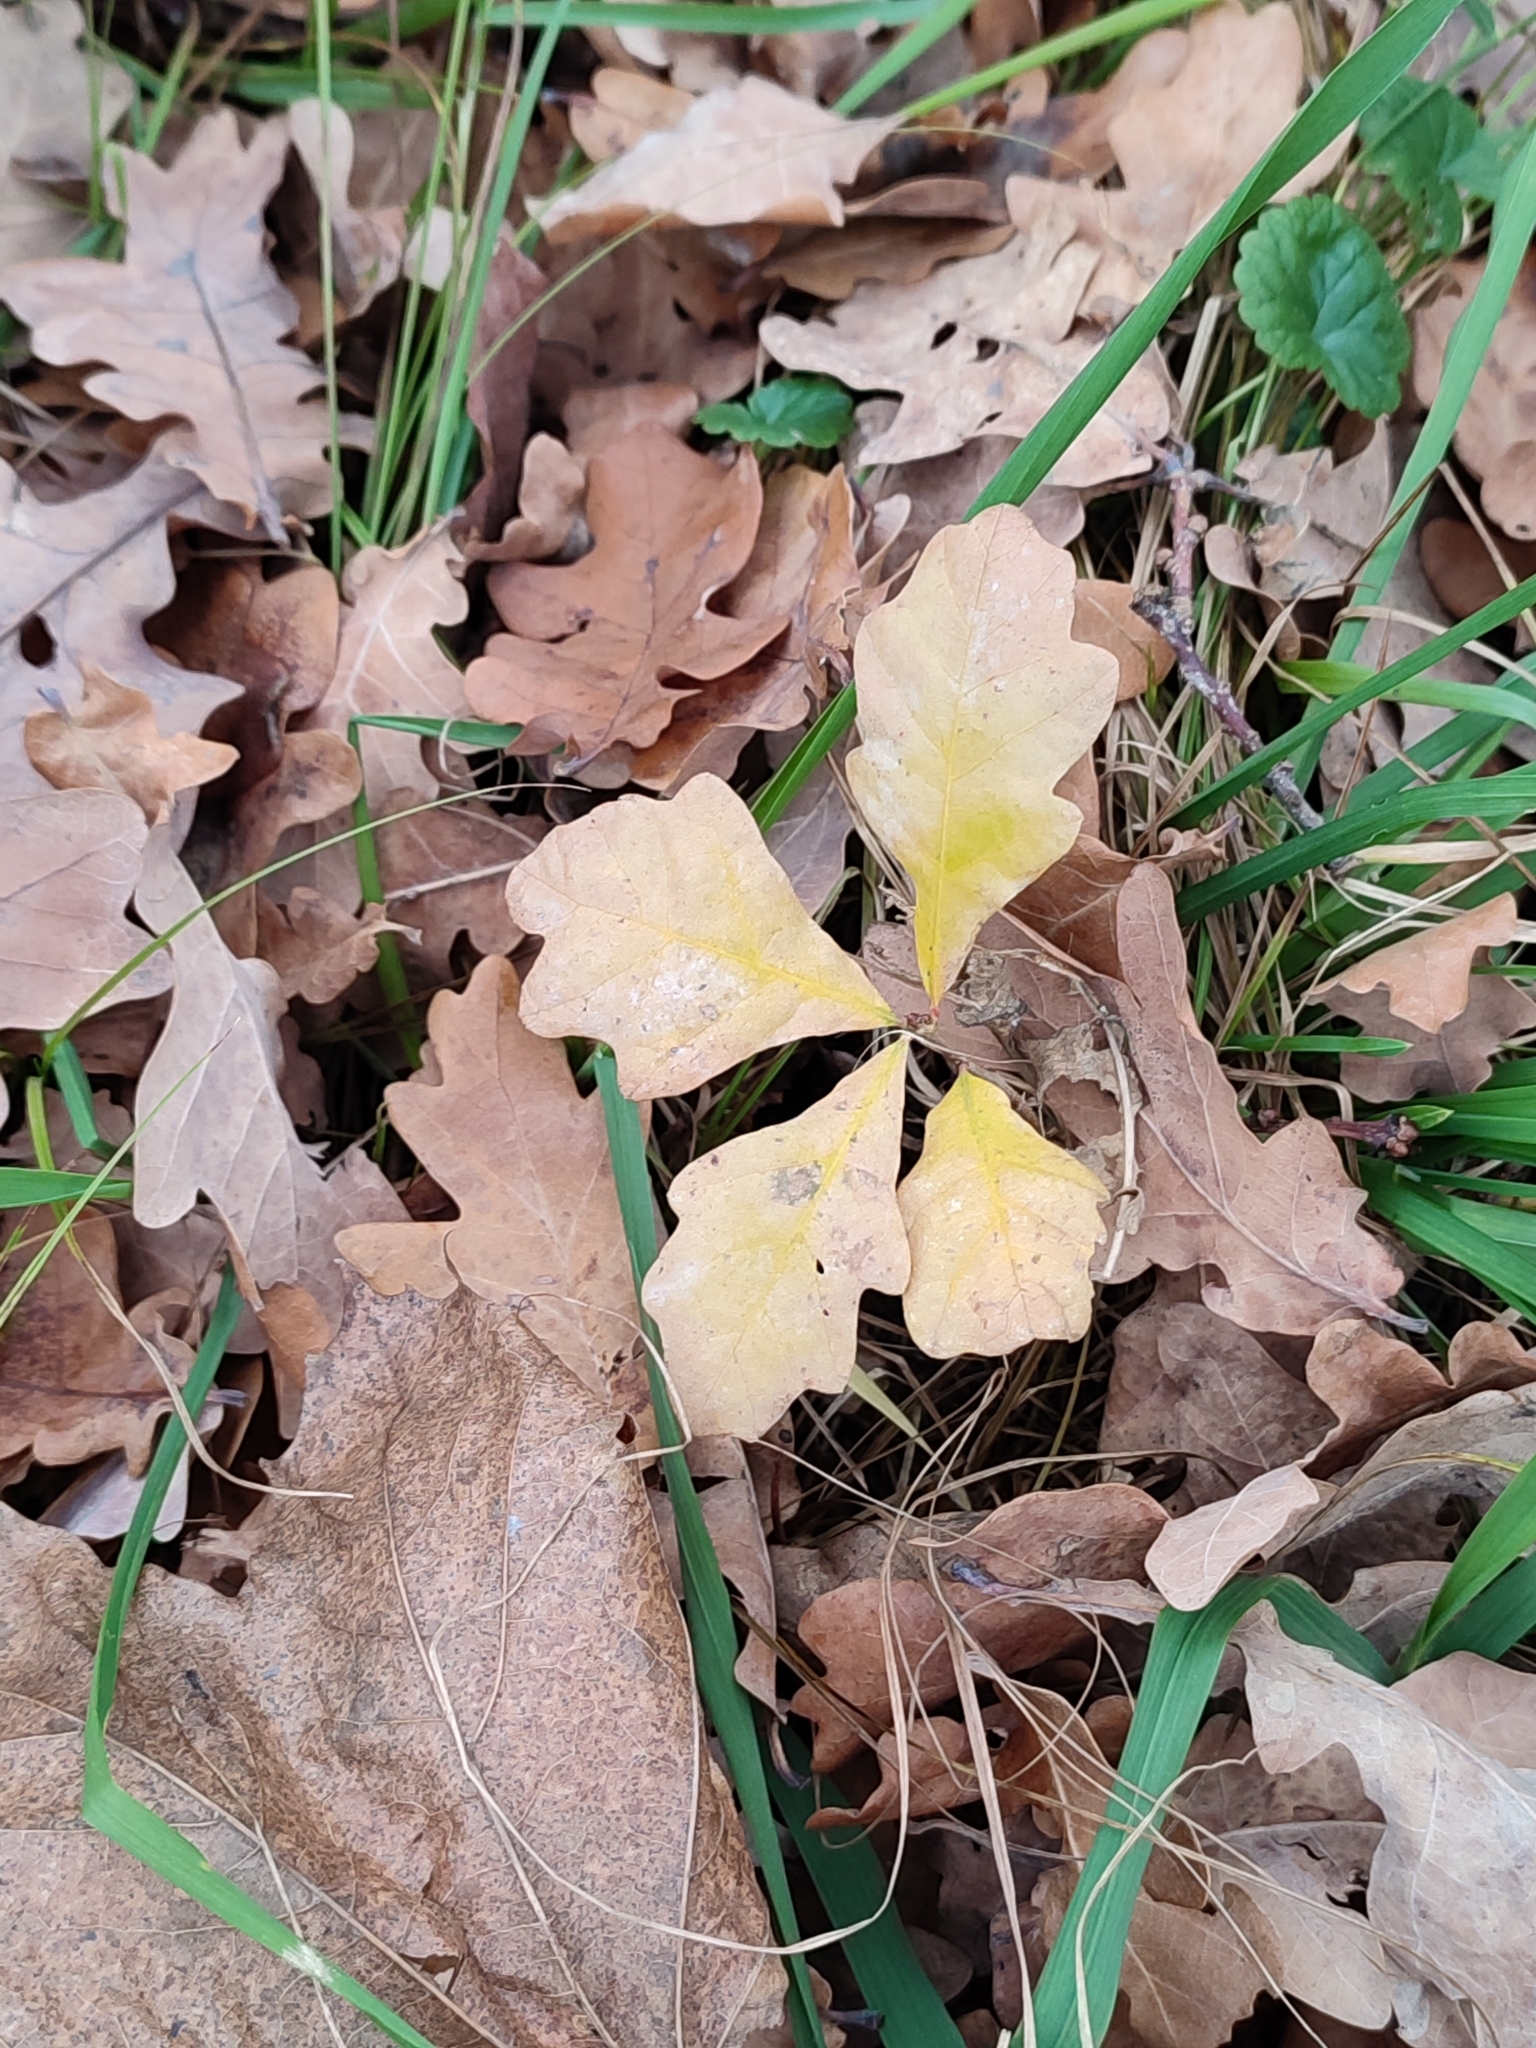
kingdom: Plantae
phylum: Tracheophyta
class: Magnoliopsida
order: Fagales
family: Fagaceae
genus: Quercus
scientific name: Quercus robur
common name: Pedunculate oak
